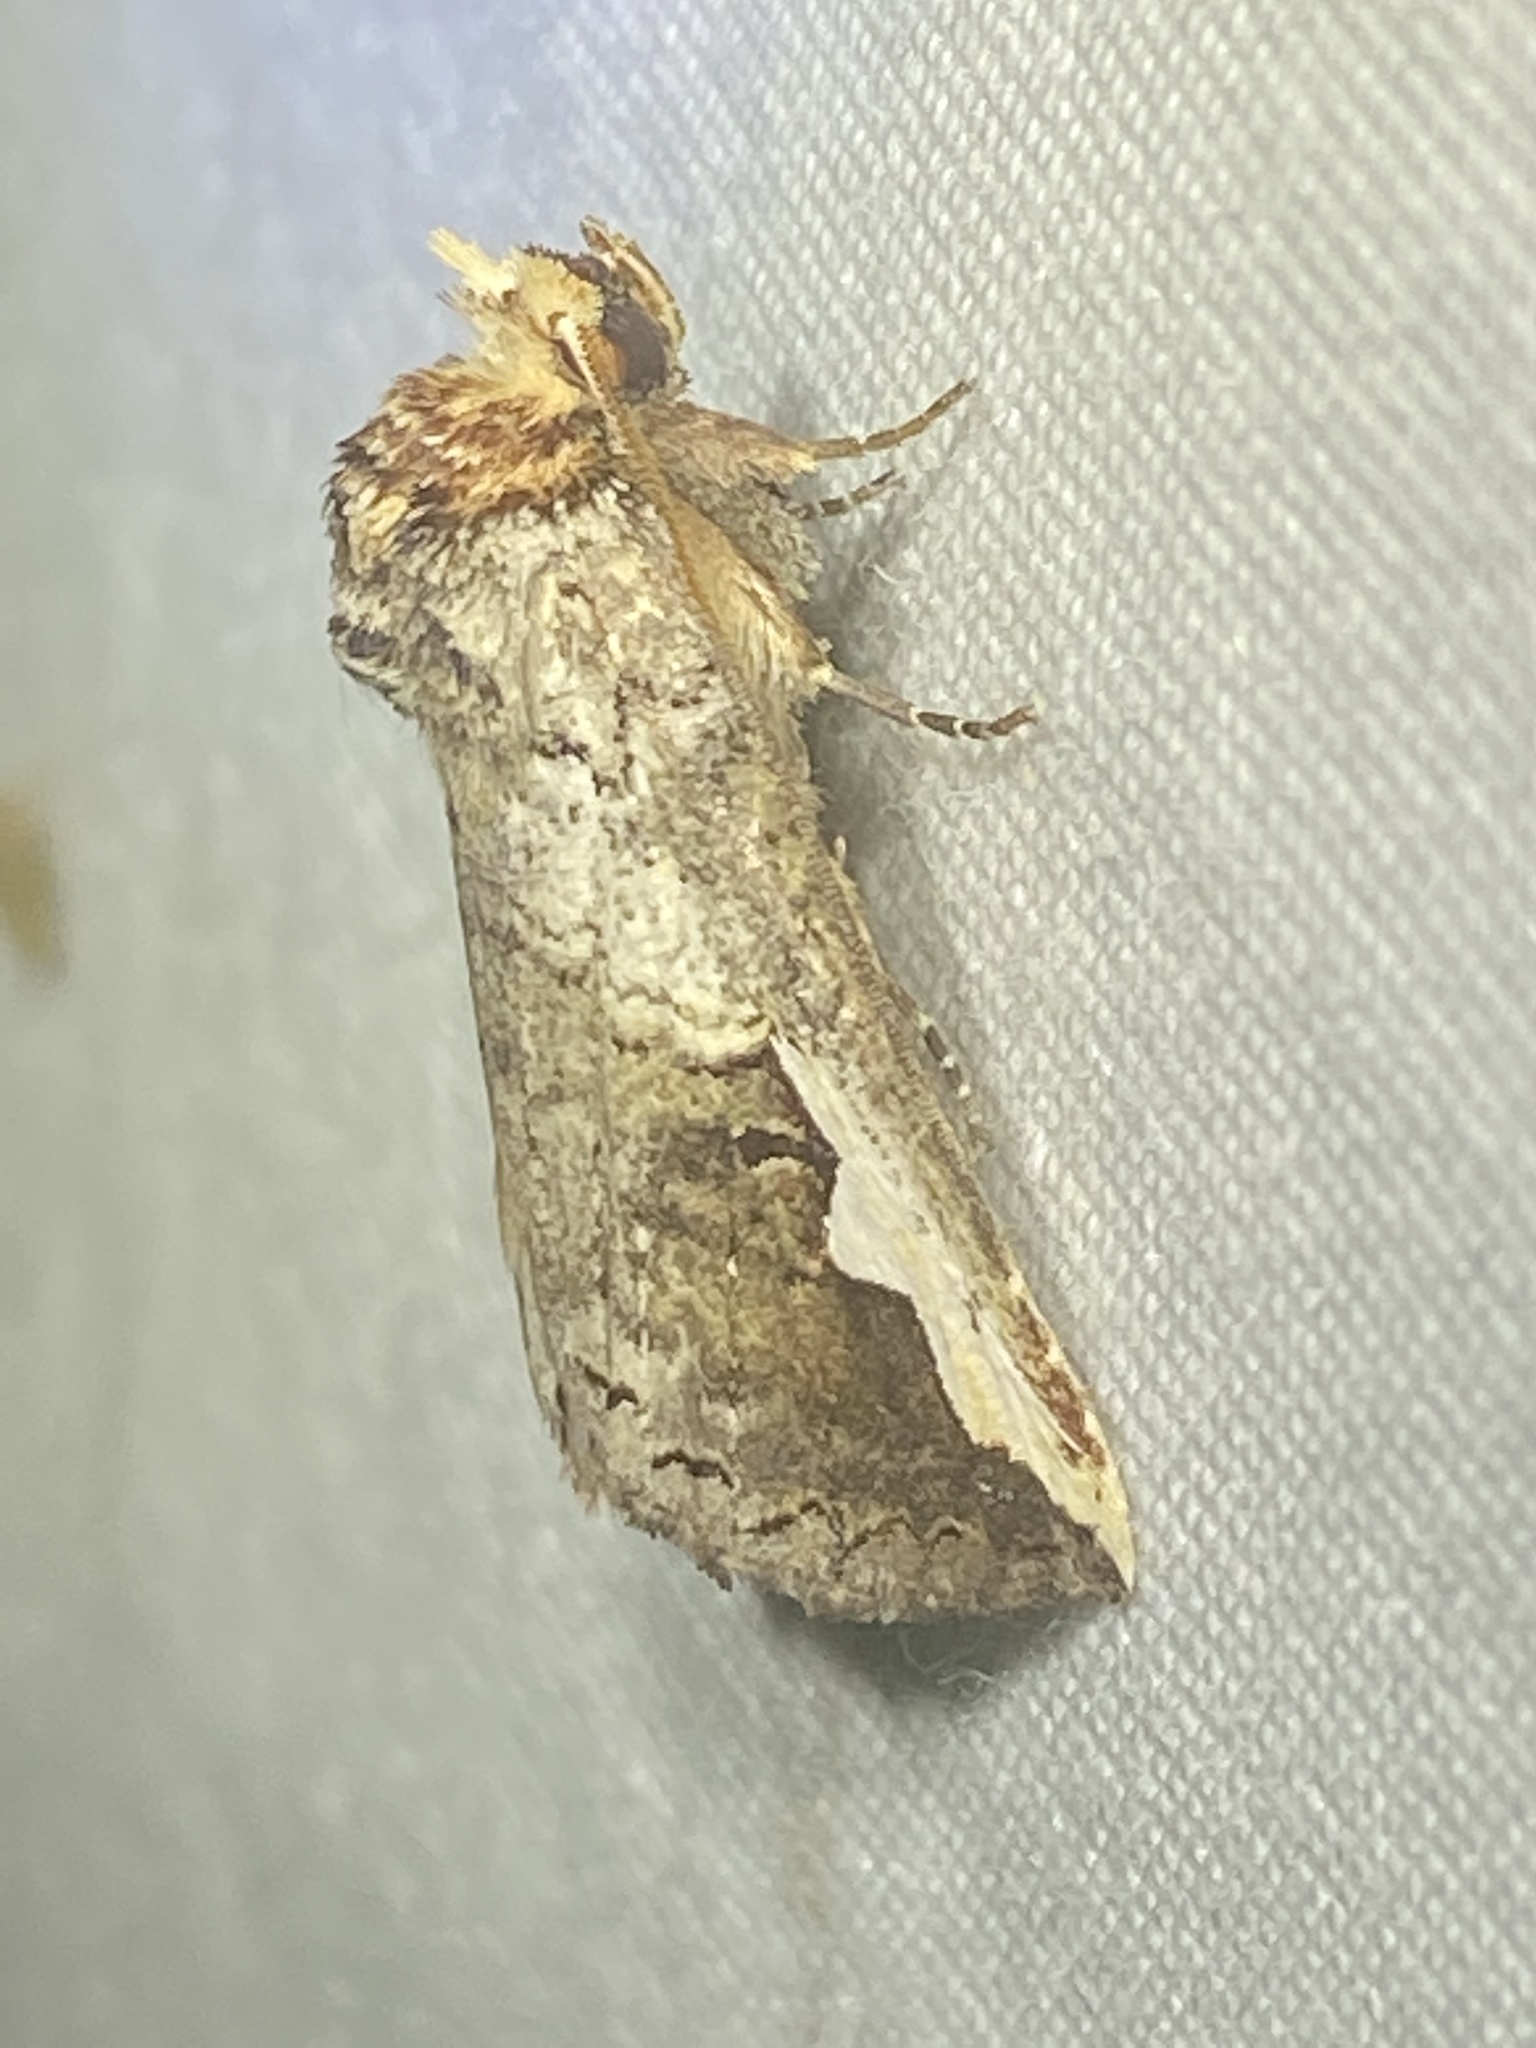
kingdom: Animalia
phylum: Arthropoda
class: Insecta
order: Lepidoptera
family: Notodontidae
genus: Symmerista
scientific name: Symmerista
